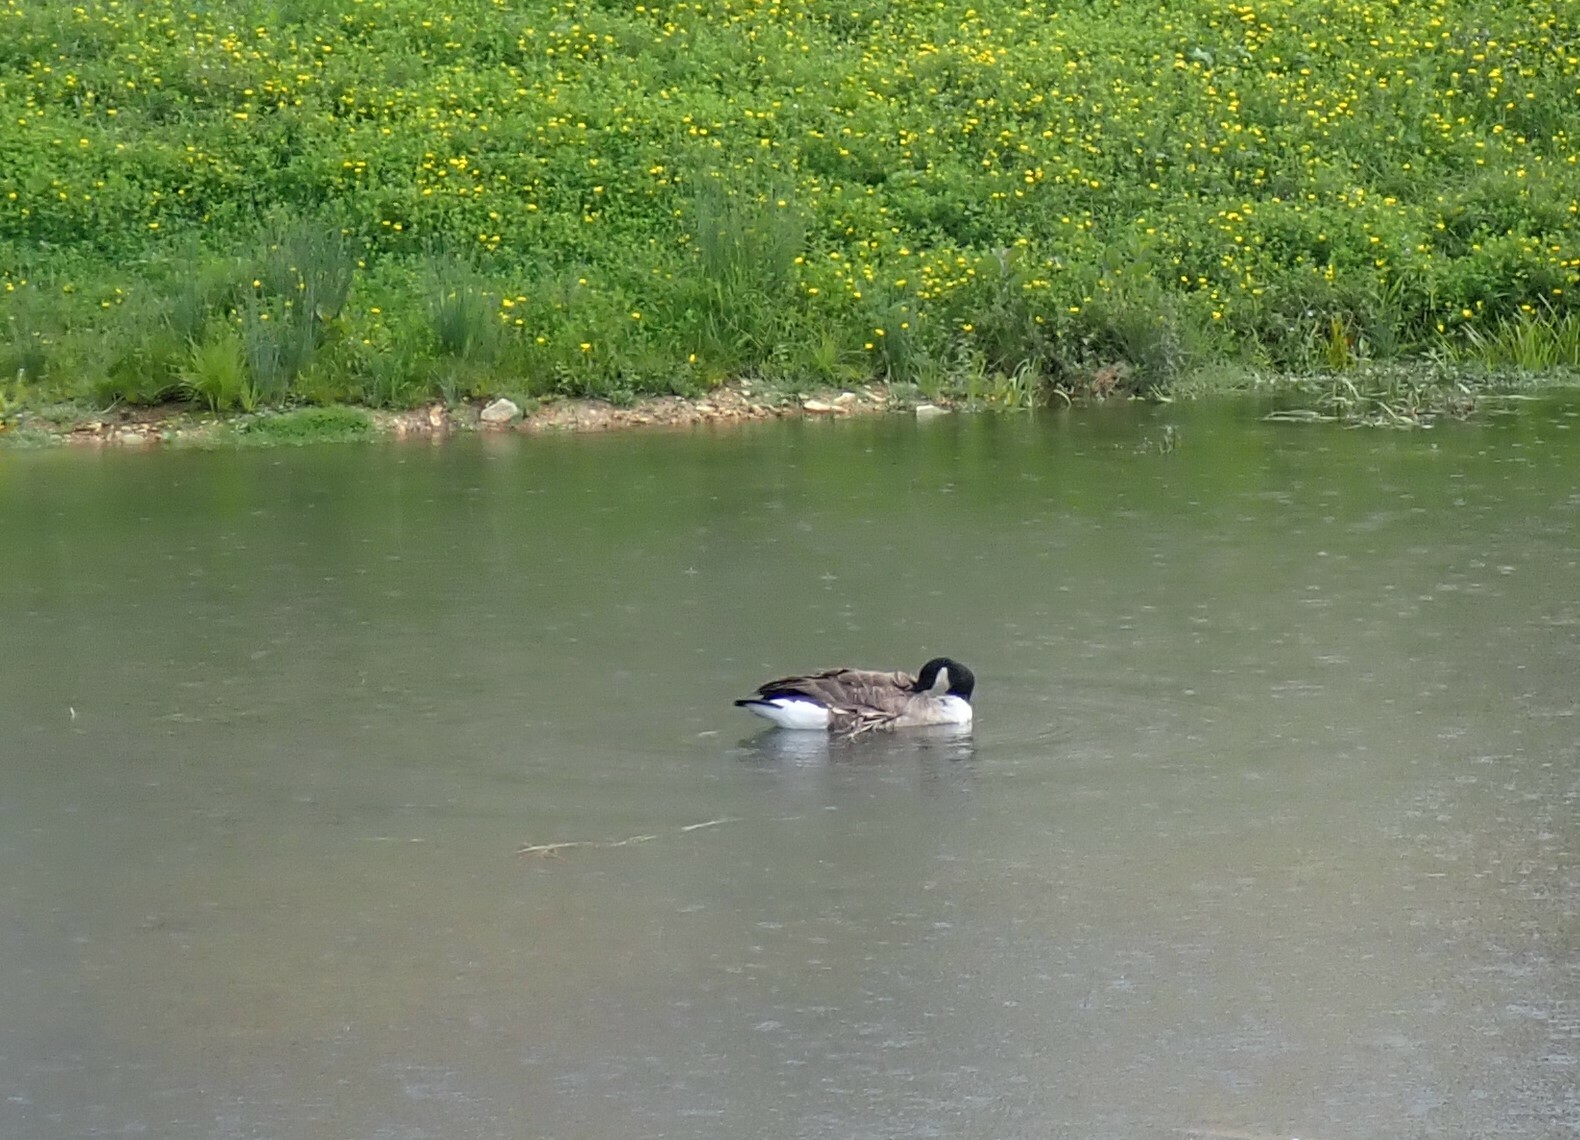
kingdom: Animalia
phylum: Chordata
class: Aves
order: Anseriformes
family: Anatidae
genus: Branta
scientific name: Branta canadensis
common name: Canada goose
